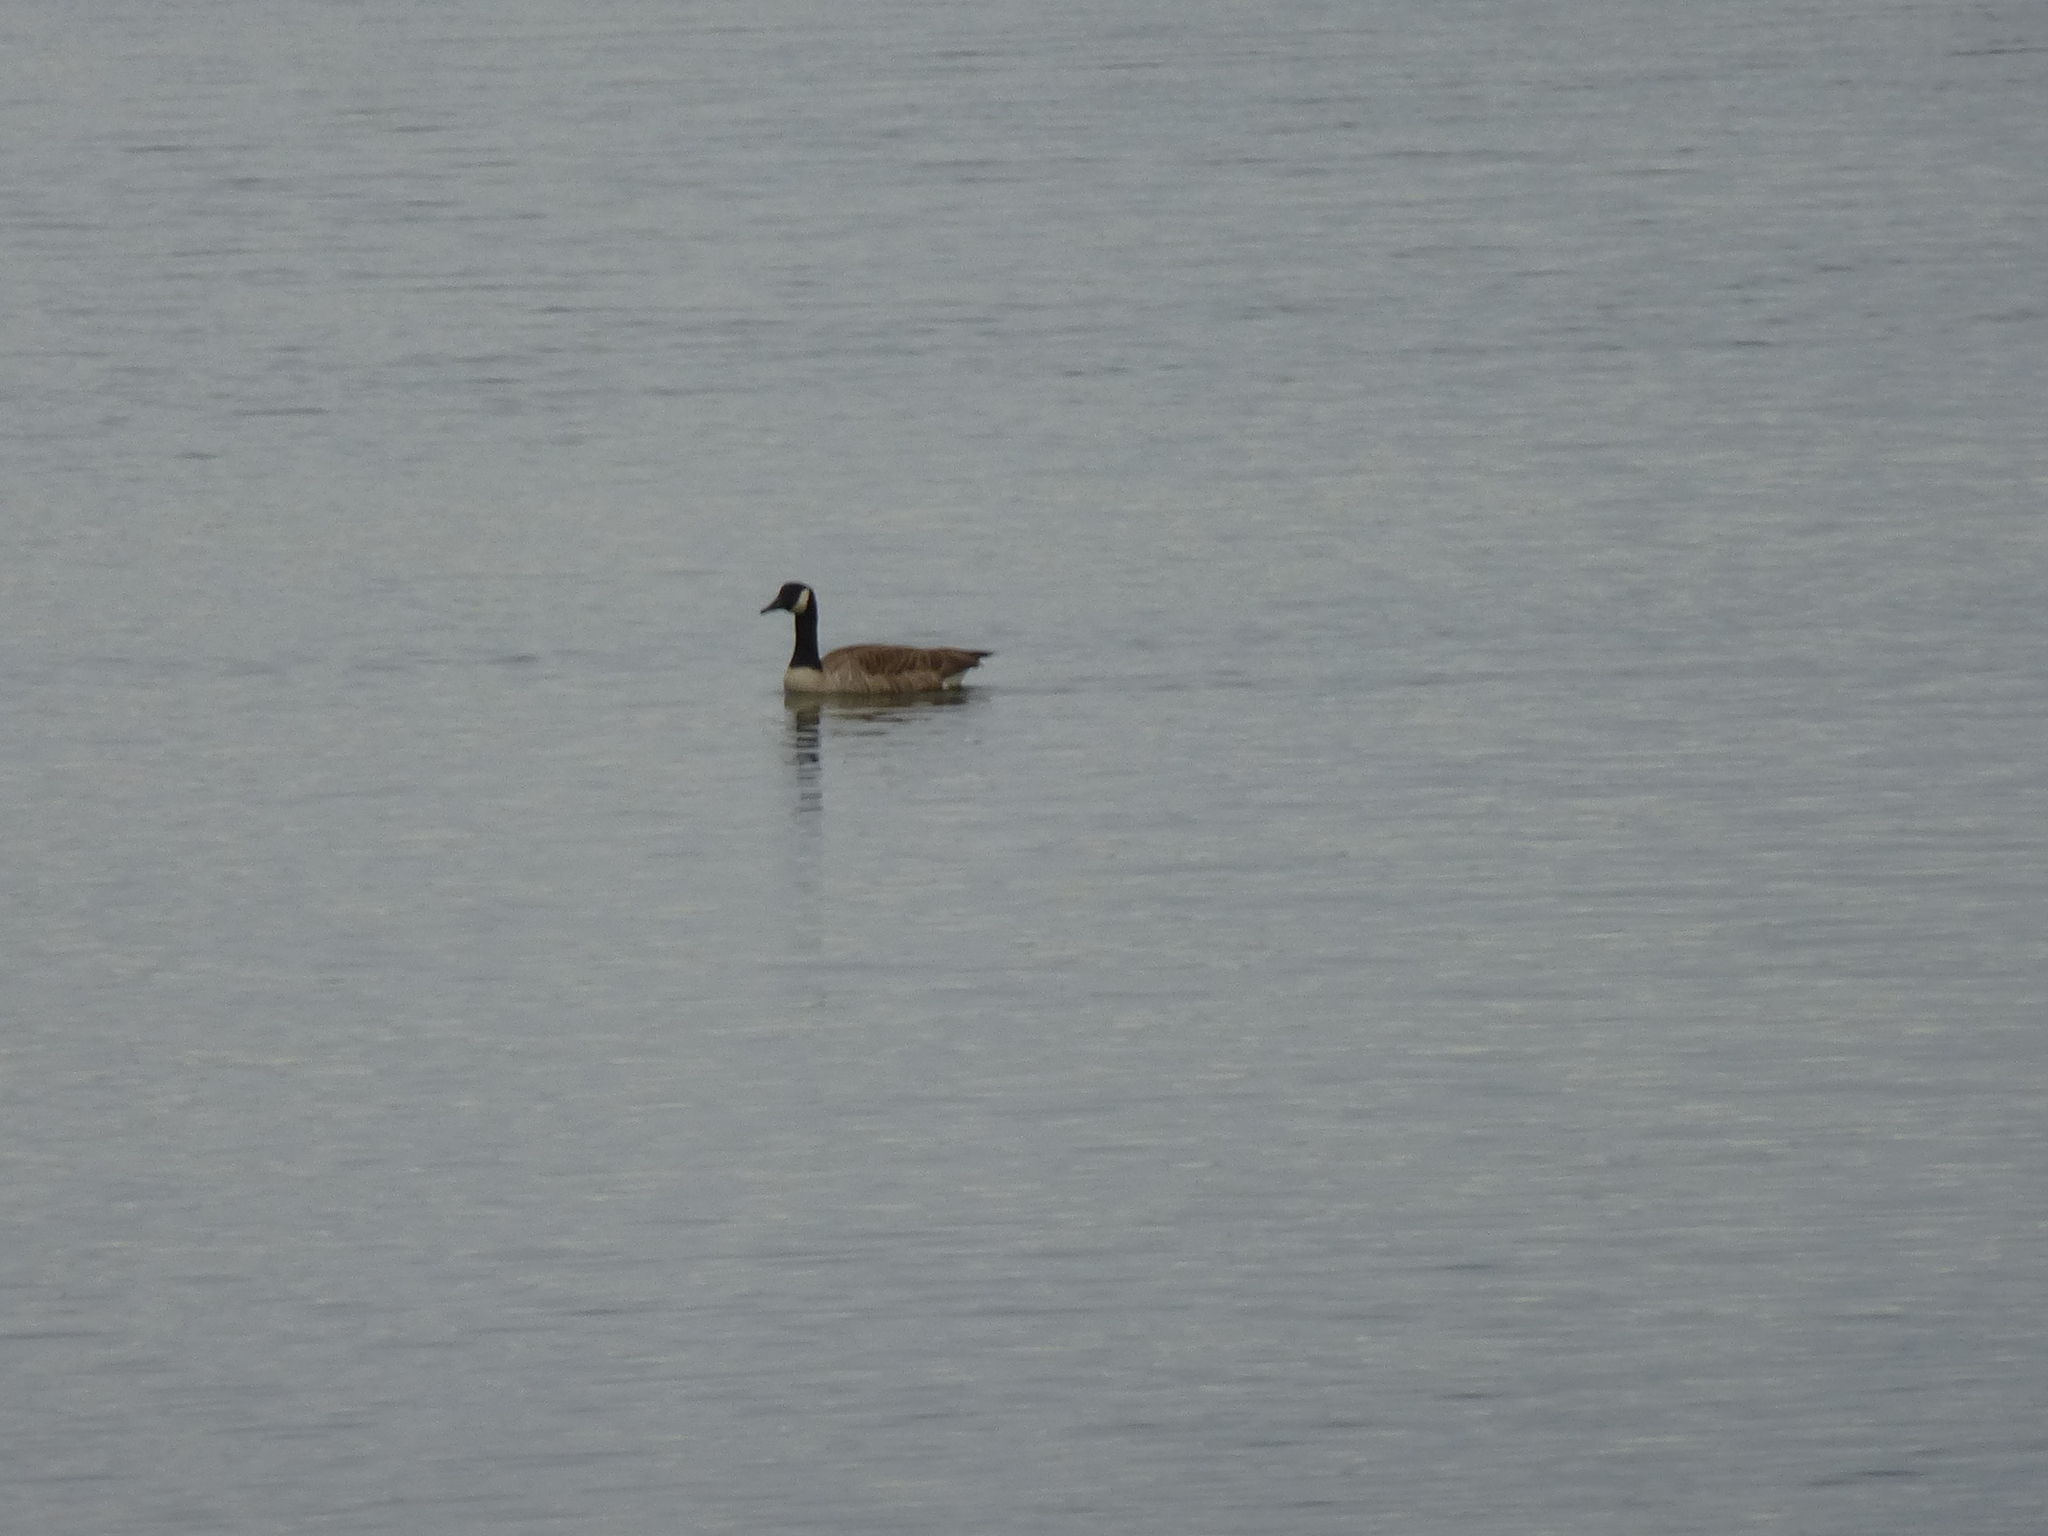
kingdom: Animalia
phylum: Chordata
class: Aves
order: Anseriformes
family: Anatidae
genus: Branta
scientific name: Branta canadensis
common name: Canada goose
